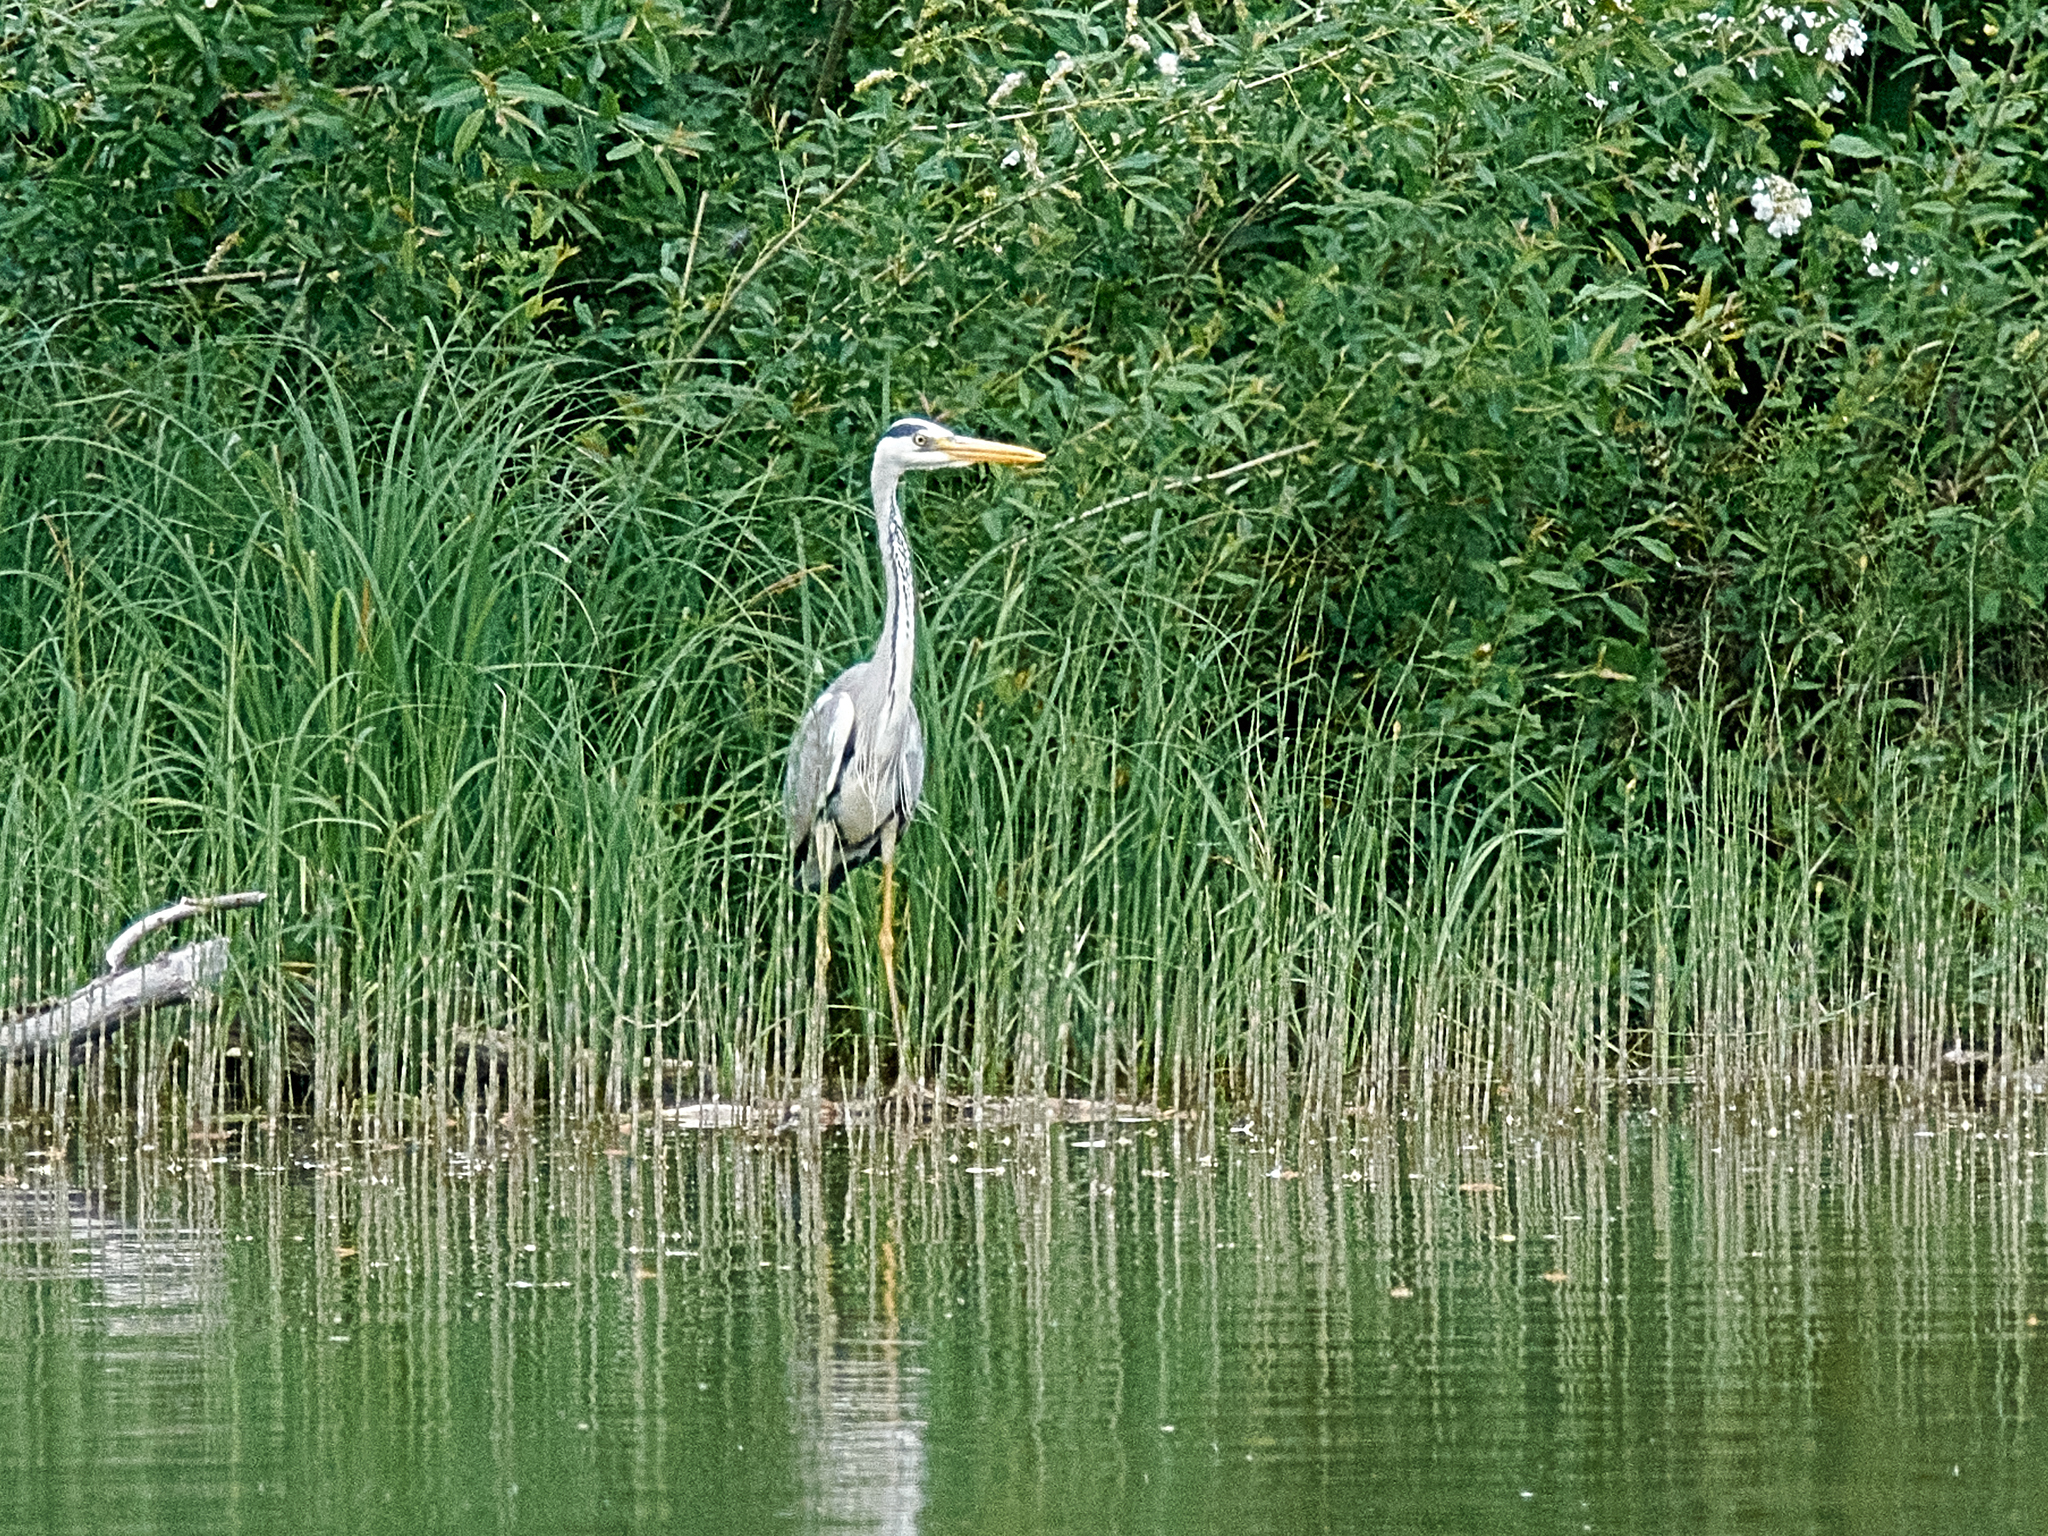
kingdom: Animalia
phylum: Chordata
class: Aves
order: Pelecaniformes
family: Ardeidae
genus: Ardea
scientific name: Ardea cinerea
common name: Grey heron
